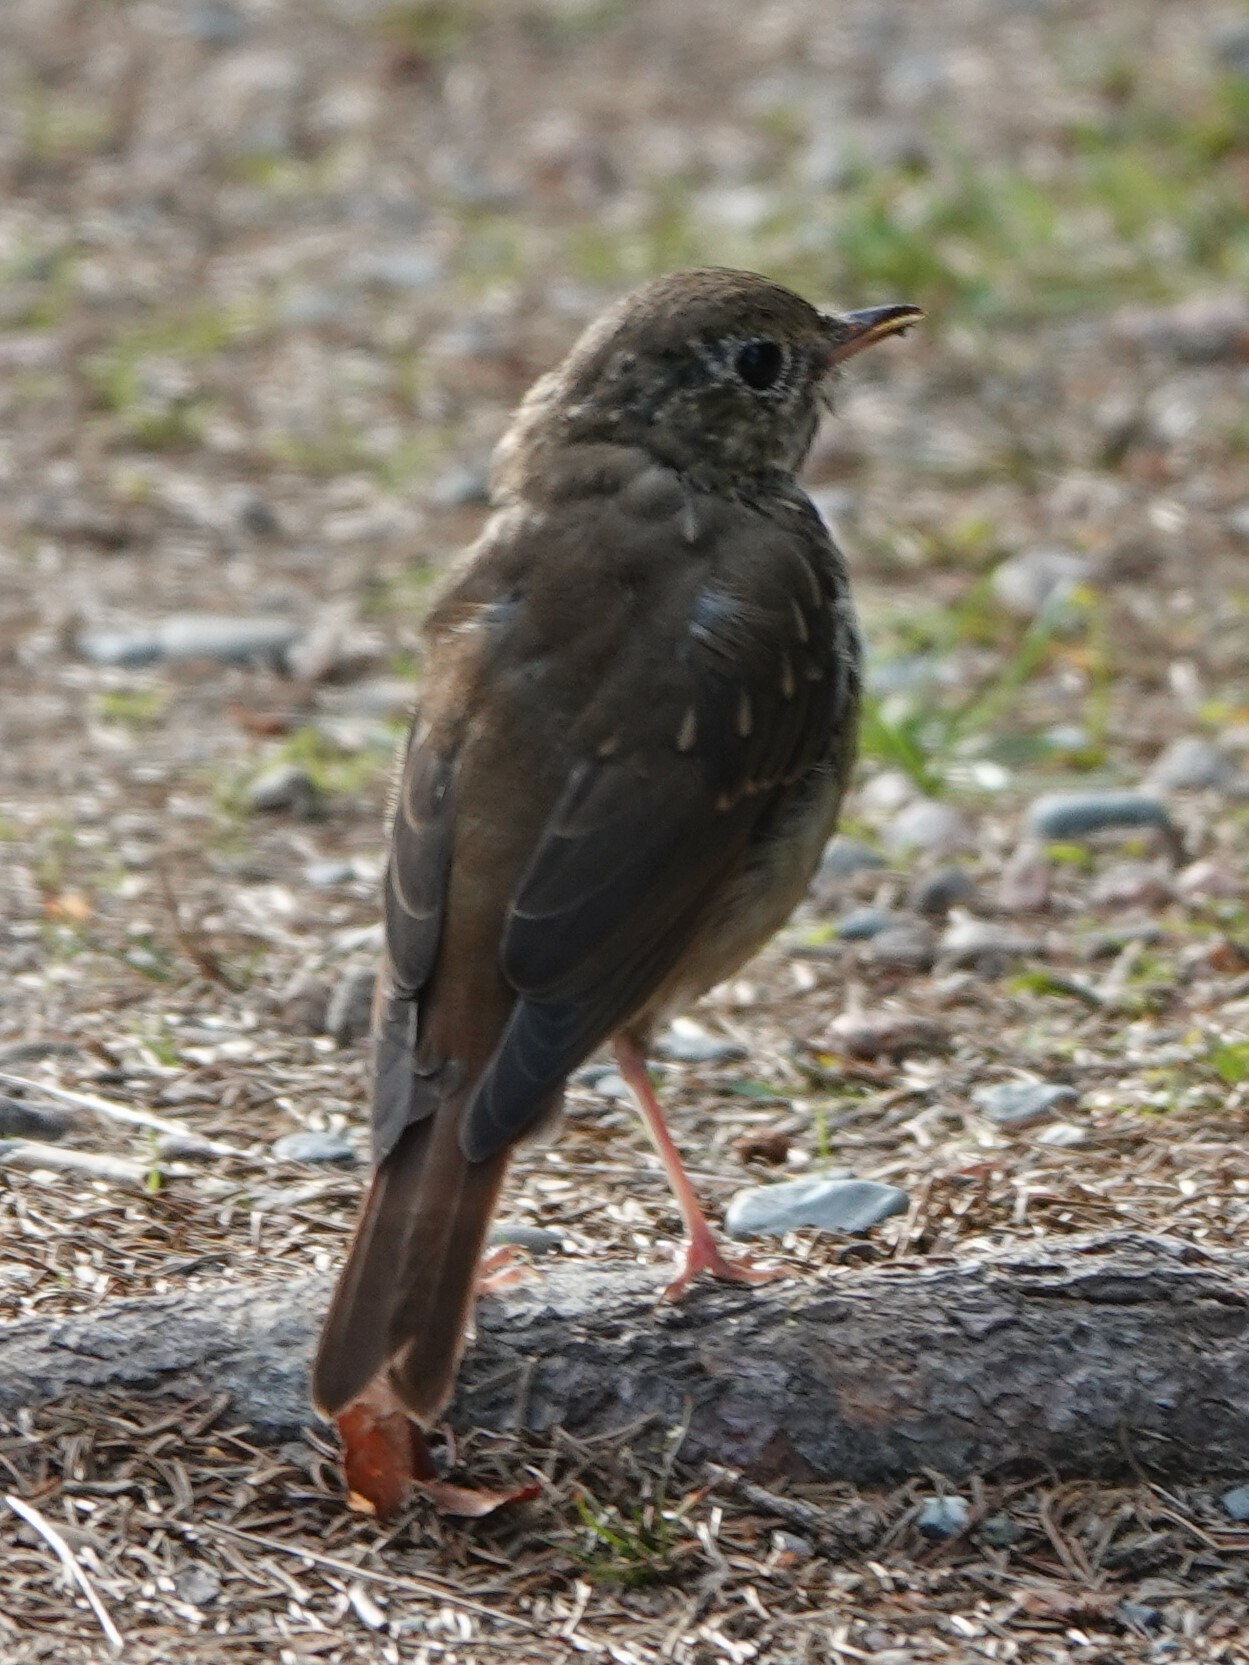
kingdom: Animalia
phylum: Chordata
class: Aves
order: Passeriformes
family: Turdidae
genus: Catharus
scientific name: Catharus guttatus
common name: Hermit thrush
